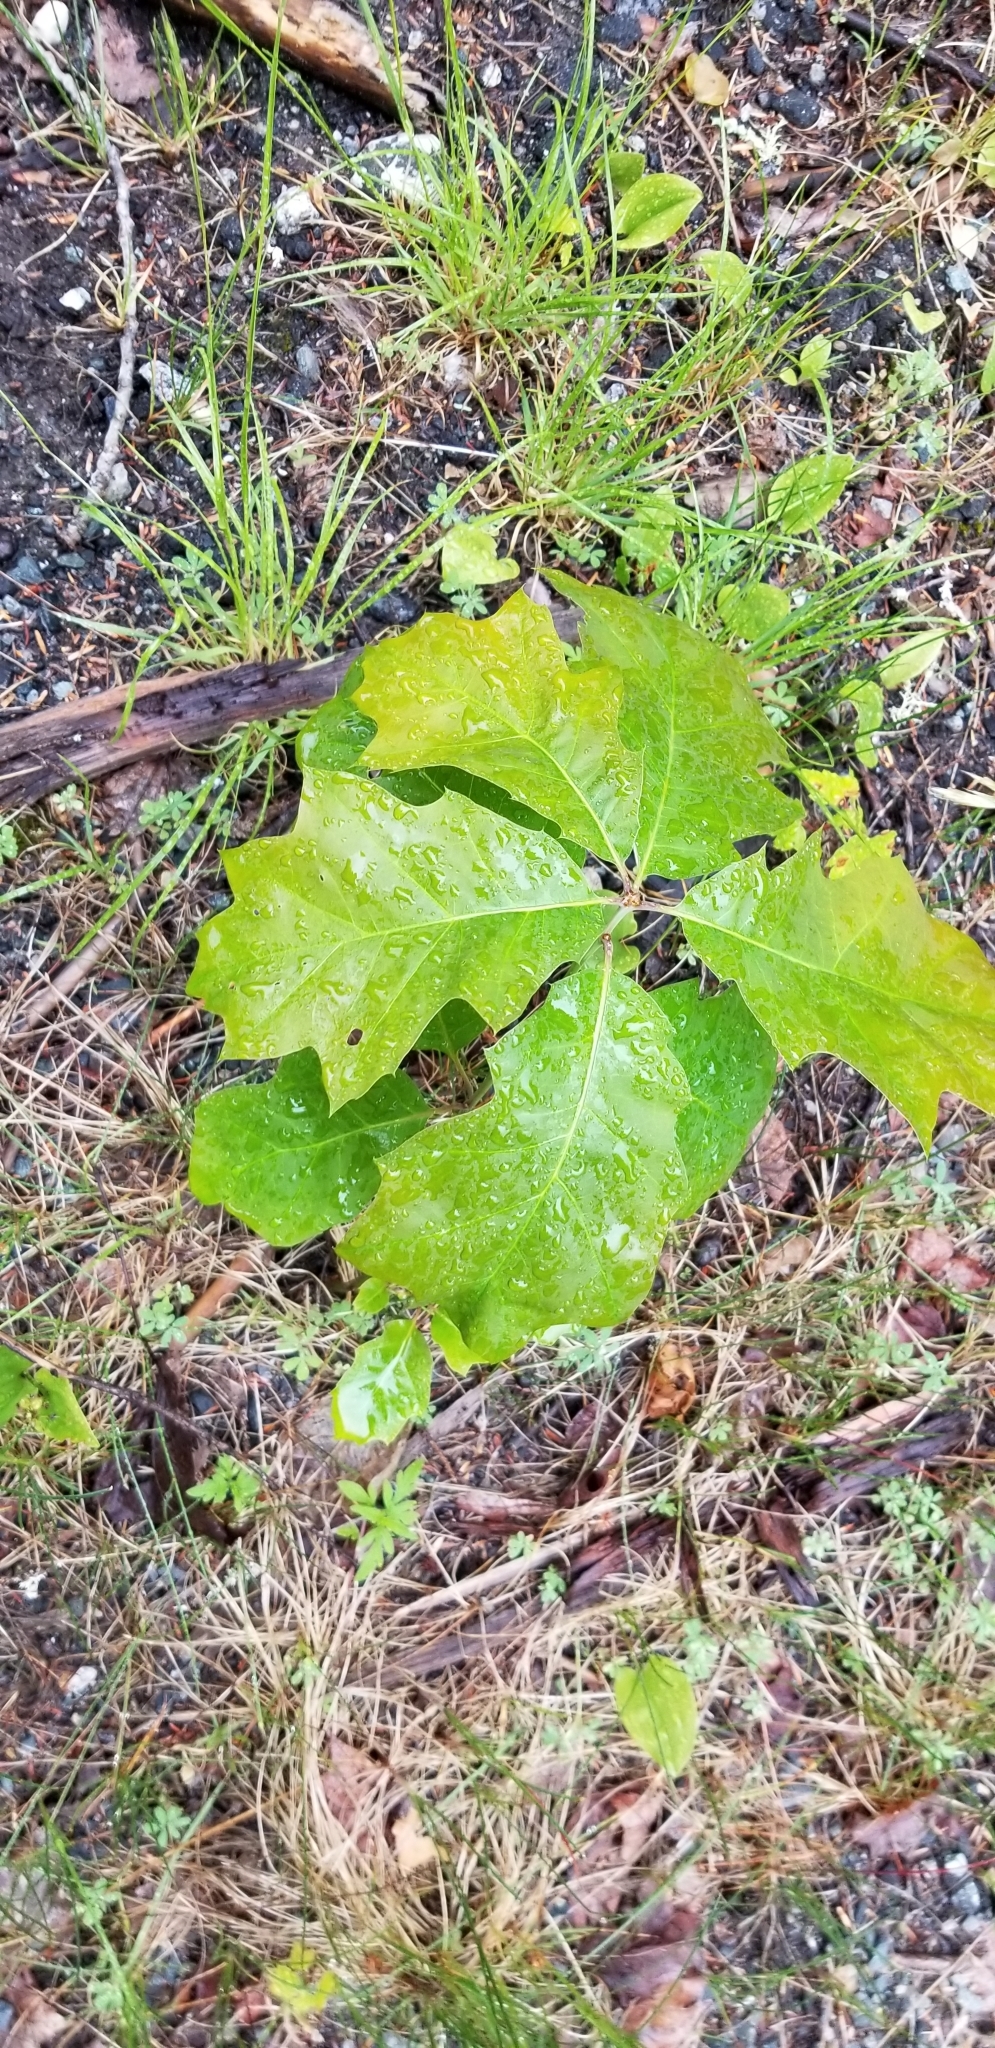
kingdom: Plantae
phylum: Tracheophyta
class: Magnoliopsida
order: Fagales
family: Fagaceae
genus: Quercus
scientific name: Quercus rubra
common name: Red oak
